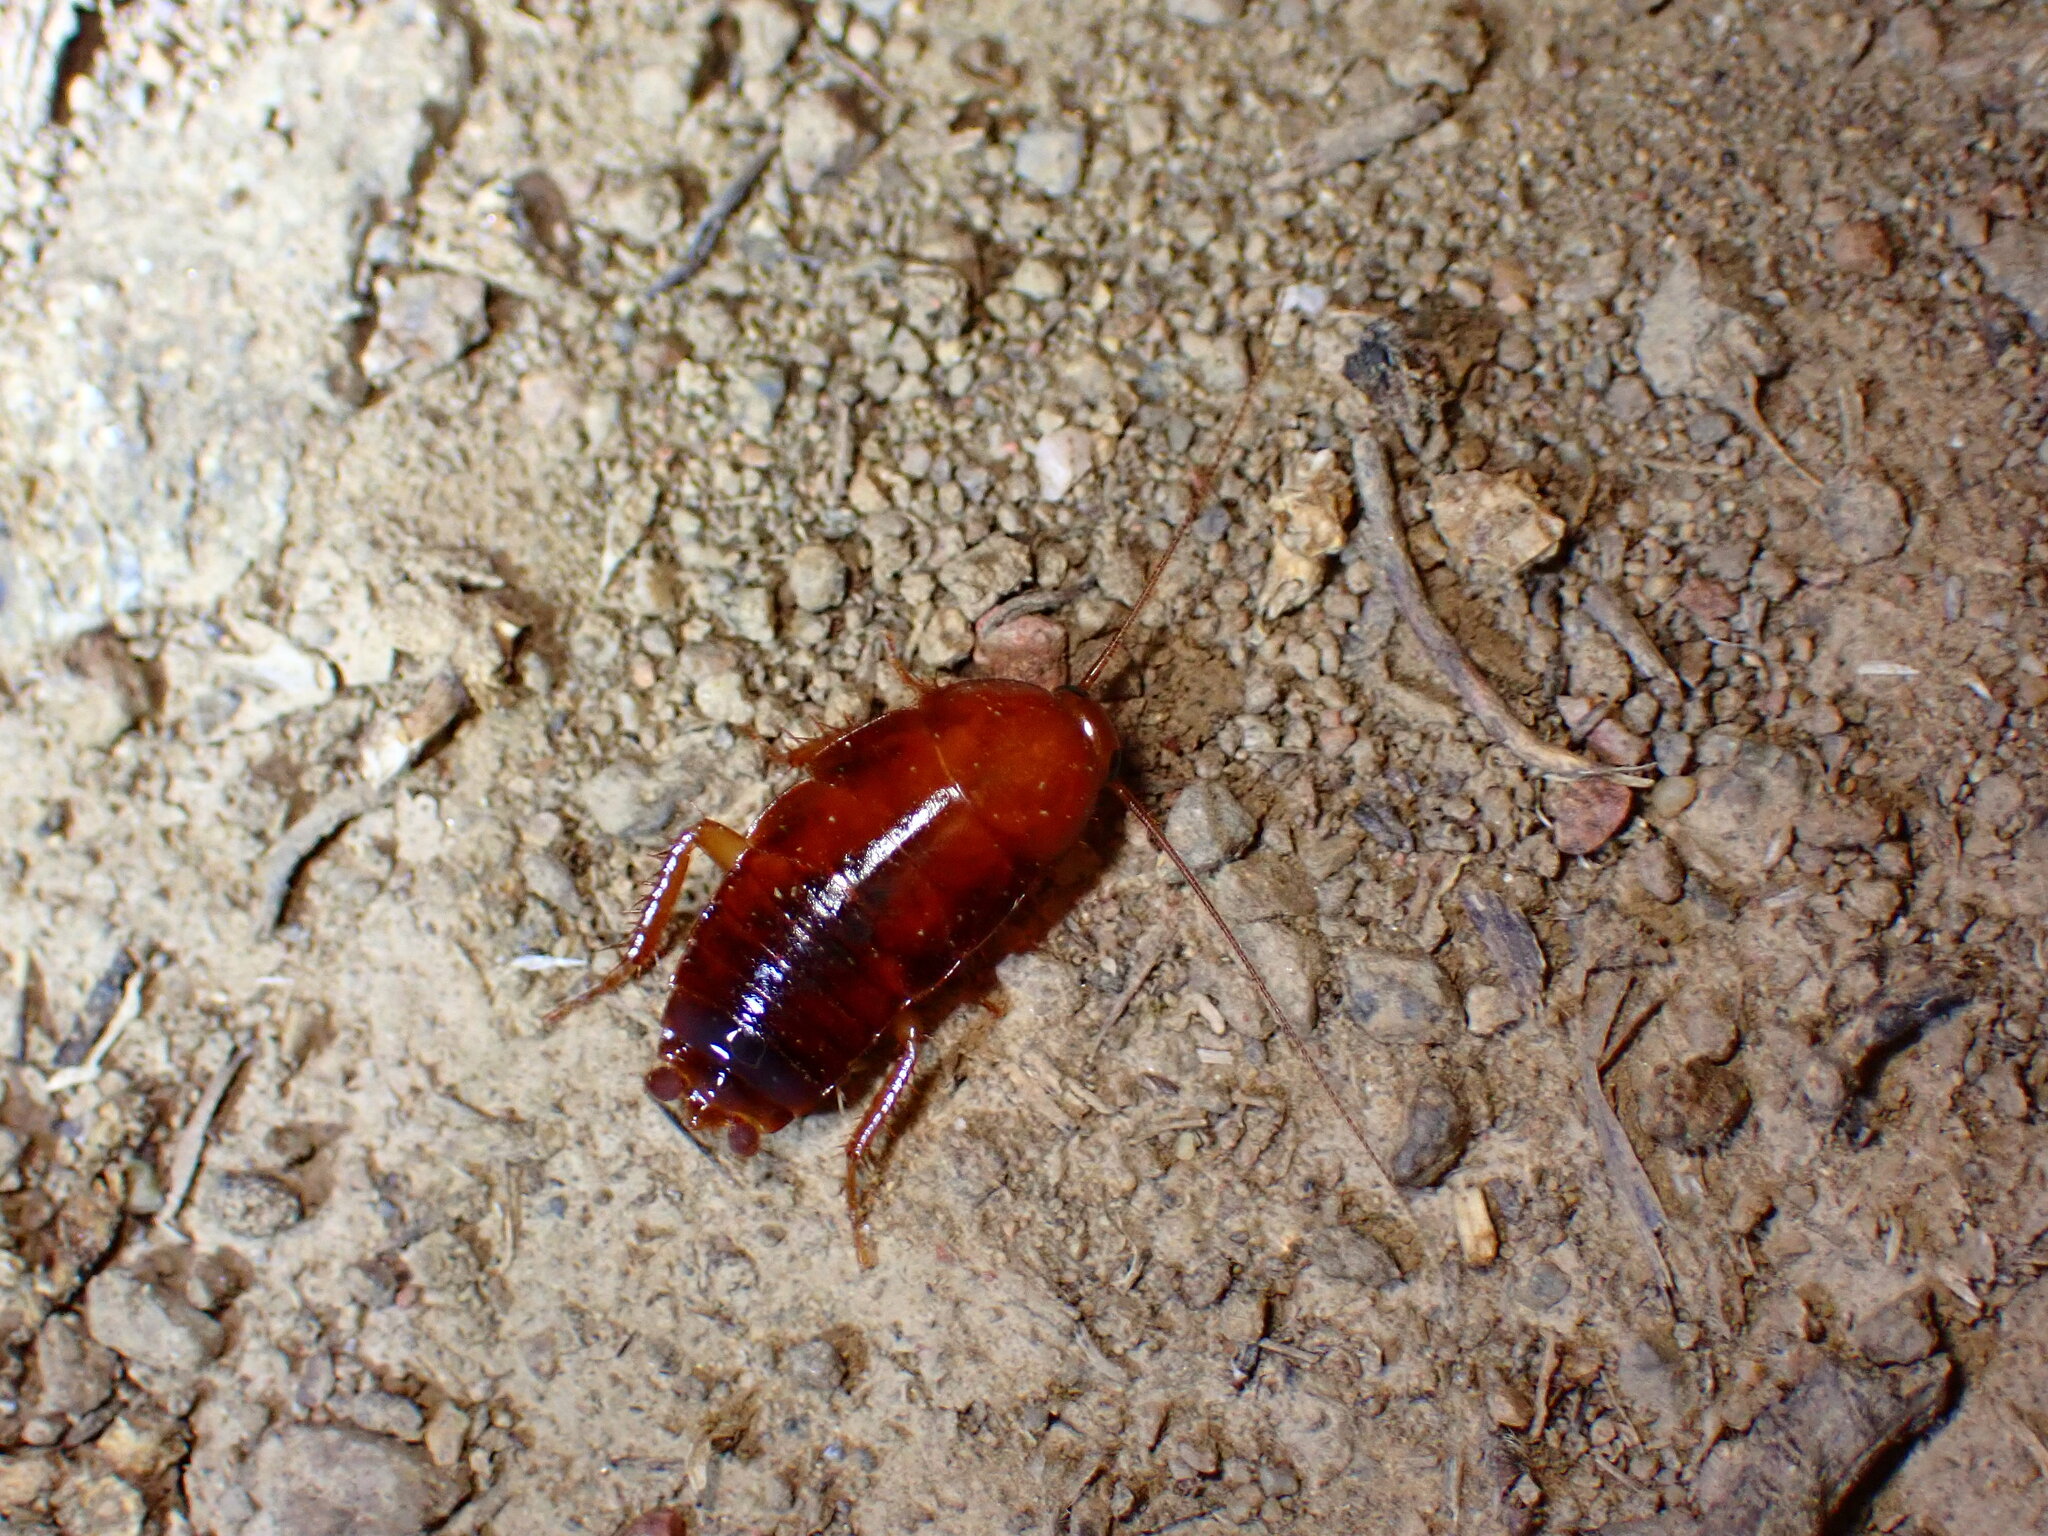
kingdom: Animalia
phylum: Arthropoda
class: Insecta
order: Blattodea
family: Ectobiidae
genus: Parcoblatta
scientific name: Parcoblatta americana
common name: Western wood cockroach
